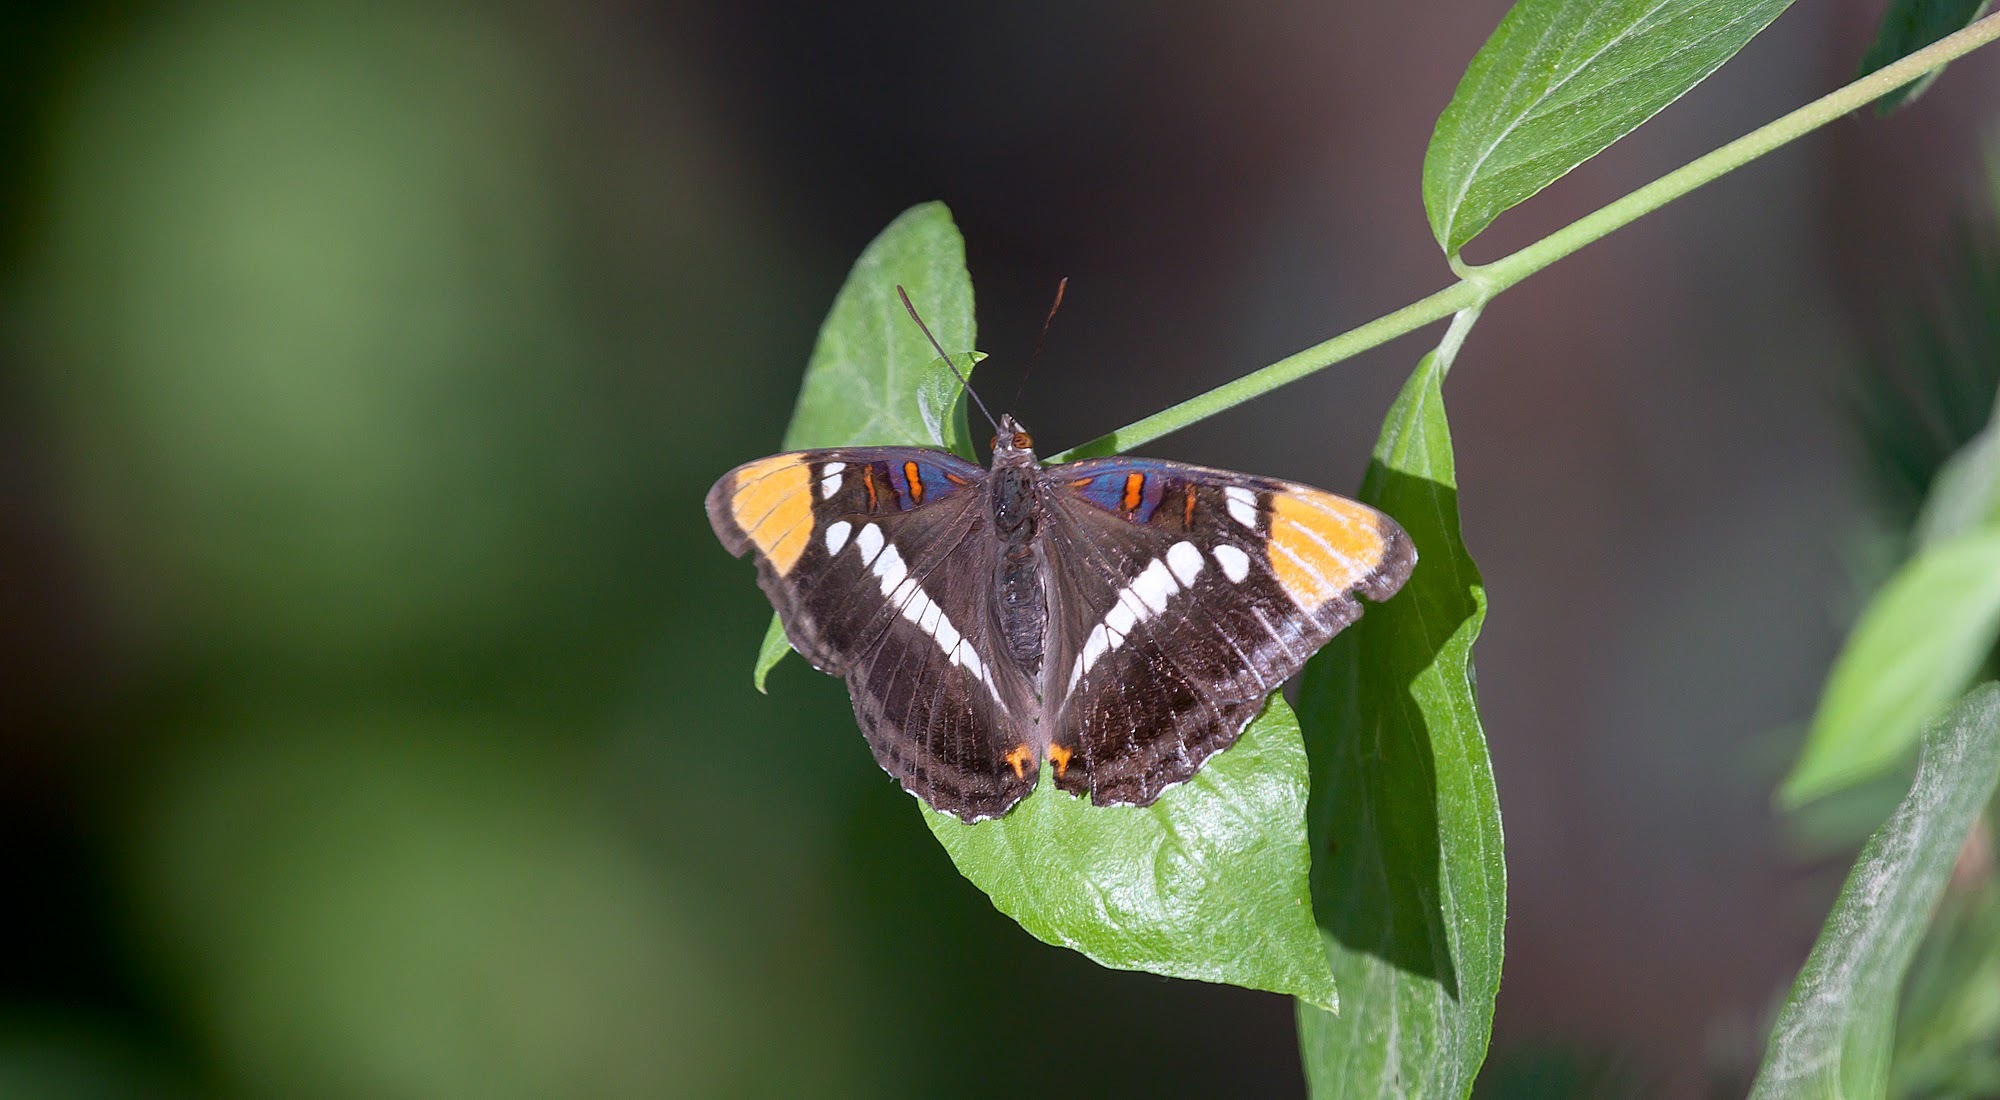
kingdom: Animalia
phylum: Arthropoda
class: Insecta
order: Lepidoptera
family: Nymphalidae
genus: Limenitis
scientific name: Limenitis bredowii
